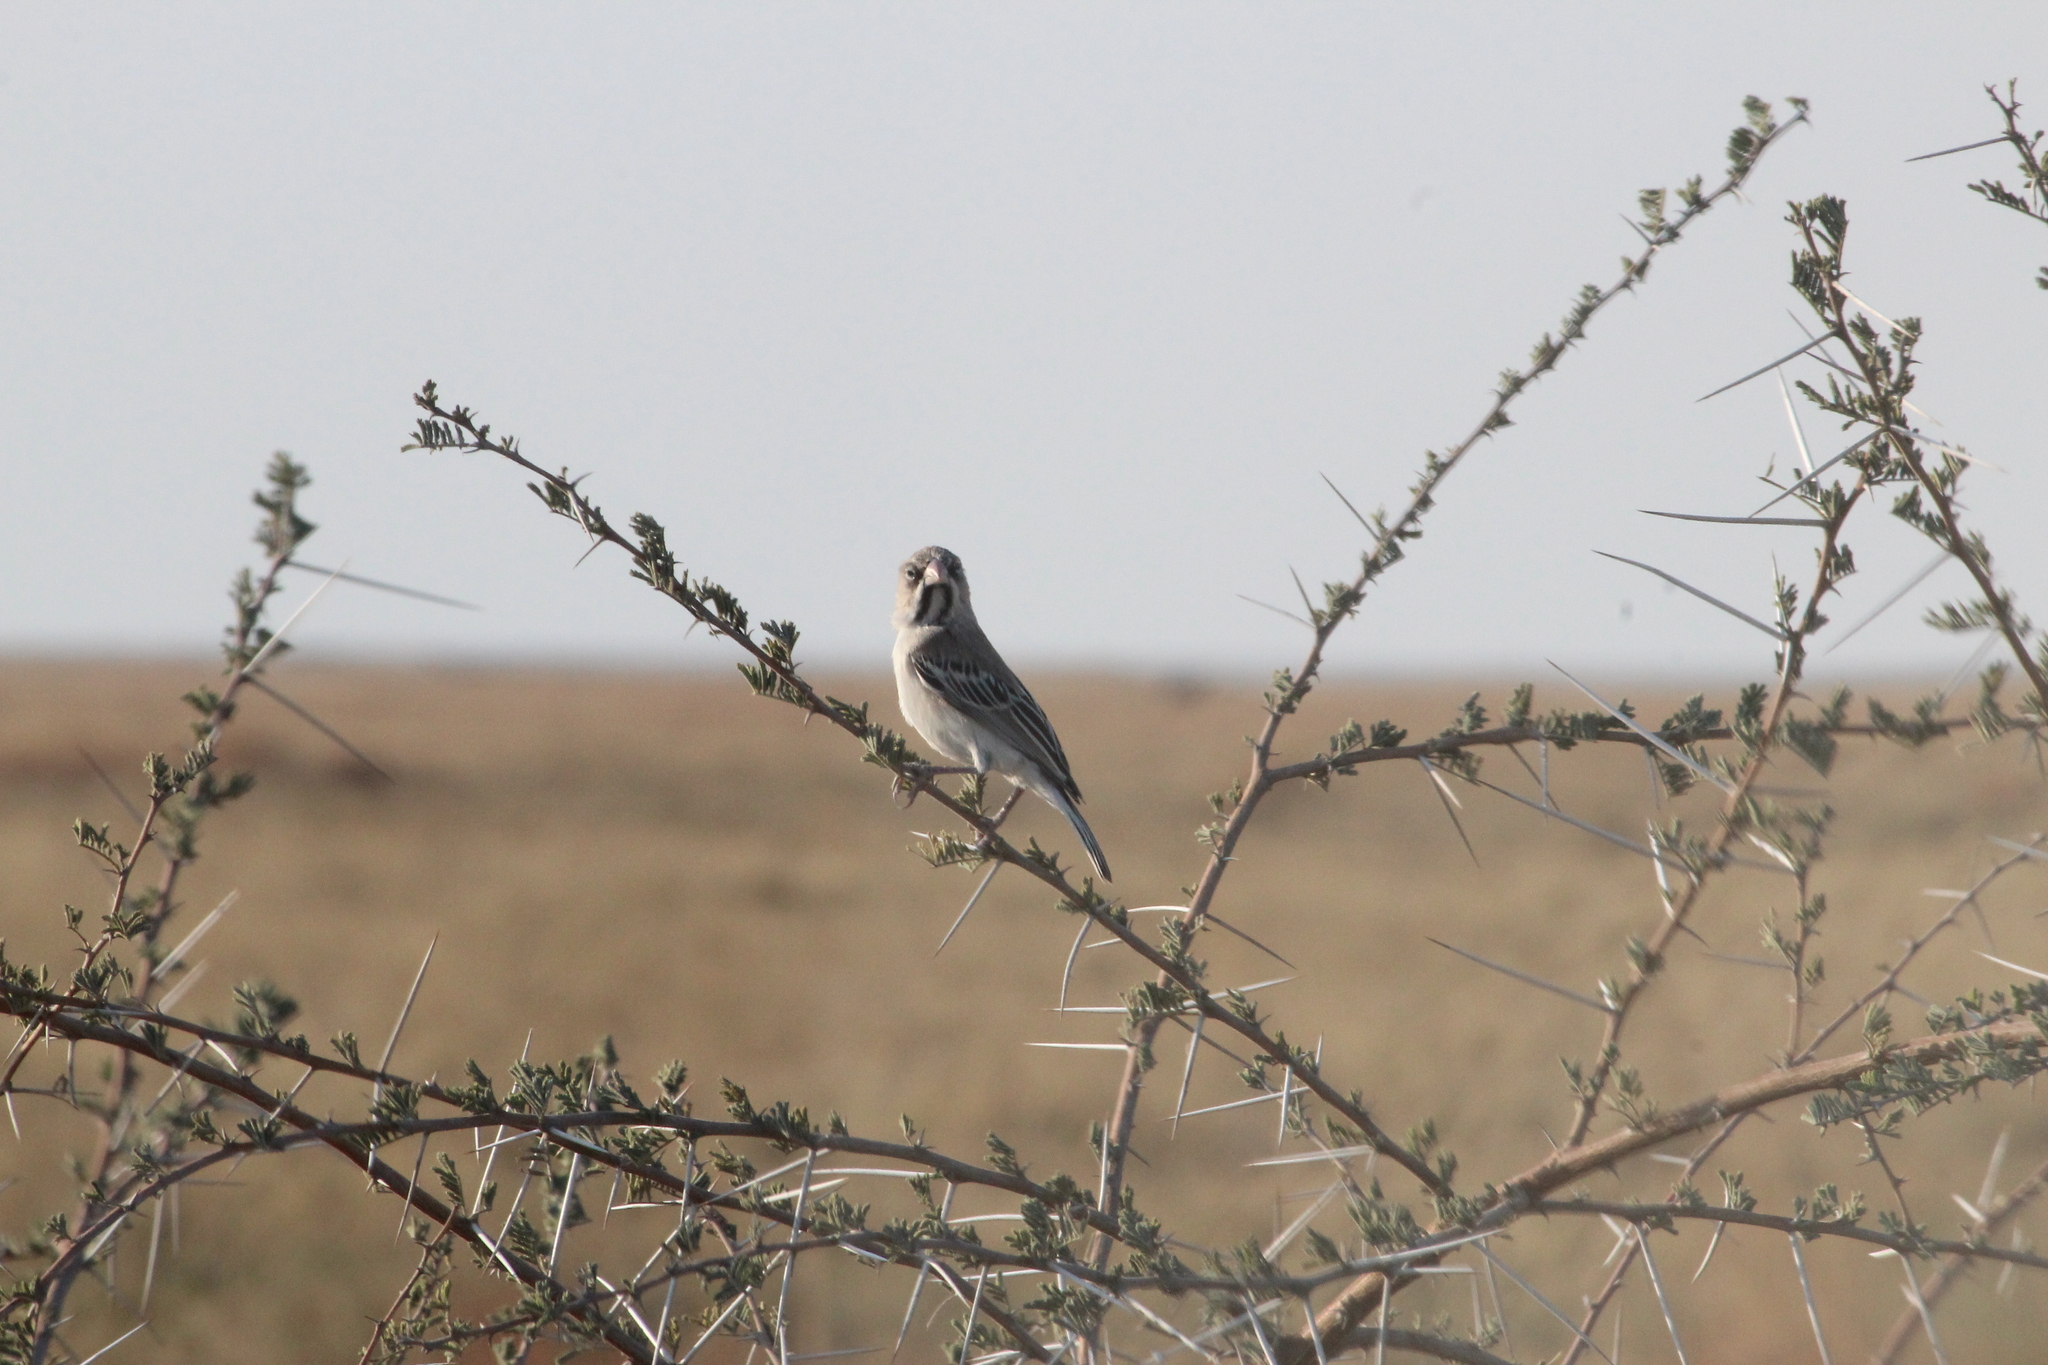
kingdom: Animalia
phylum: Chordata
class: Aves
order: Passeriformes
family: Ploceidae
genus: Sporopipes
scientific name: Sporopipes squamifrons
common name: Scaly-feathered weaver
